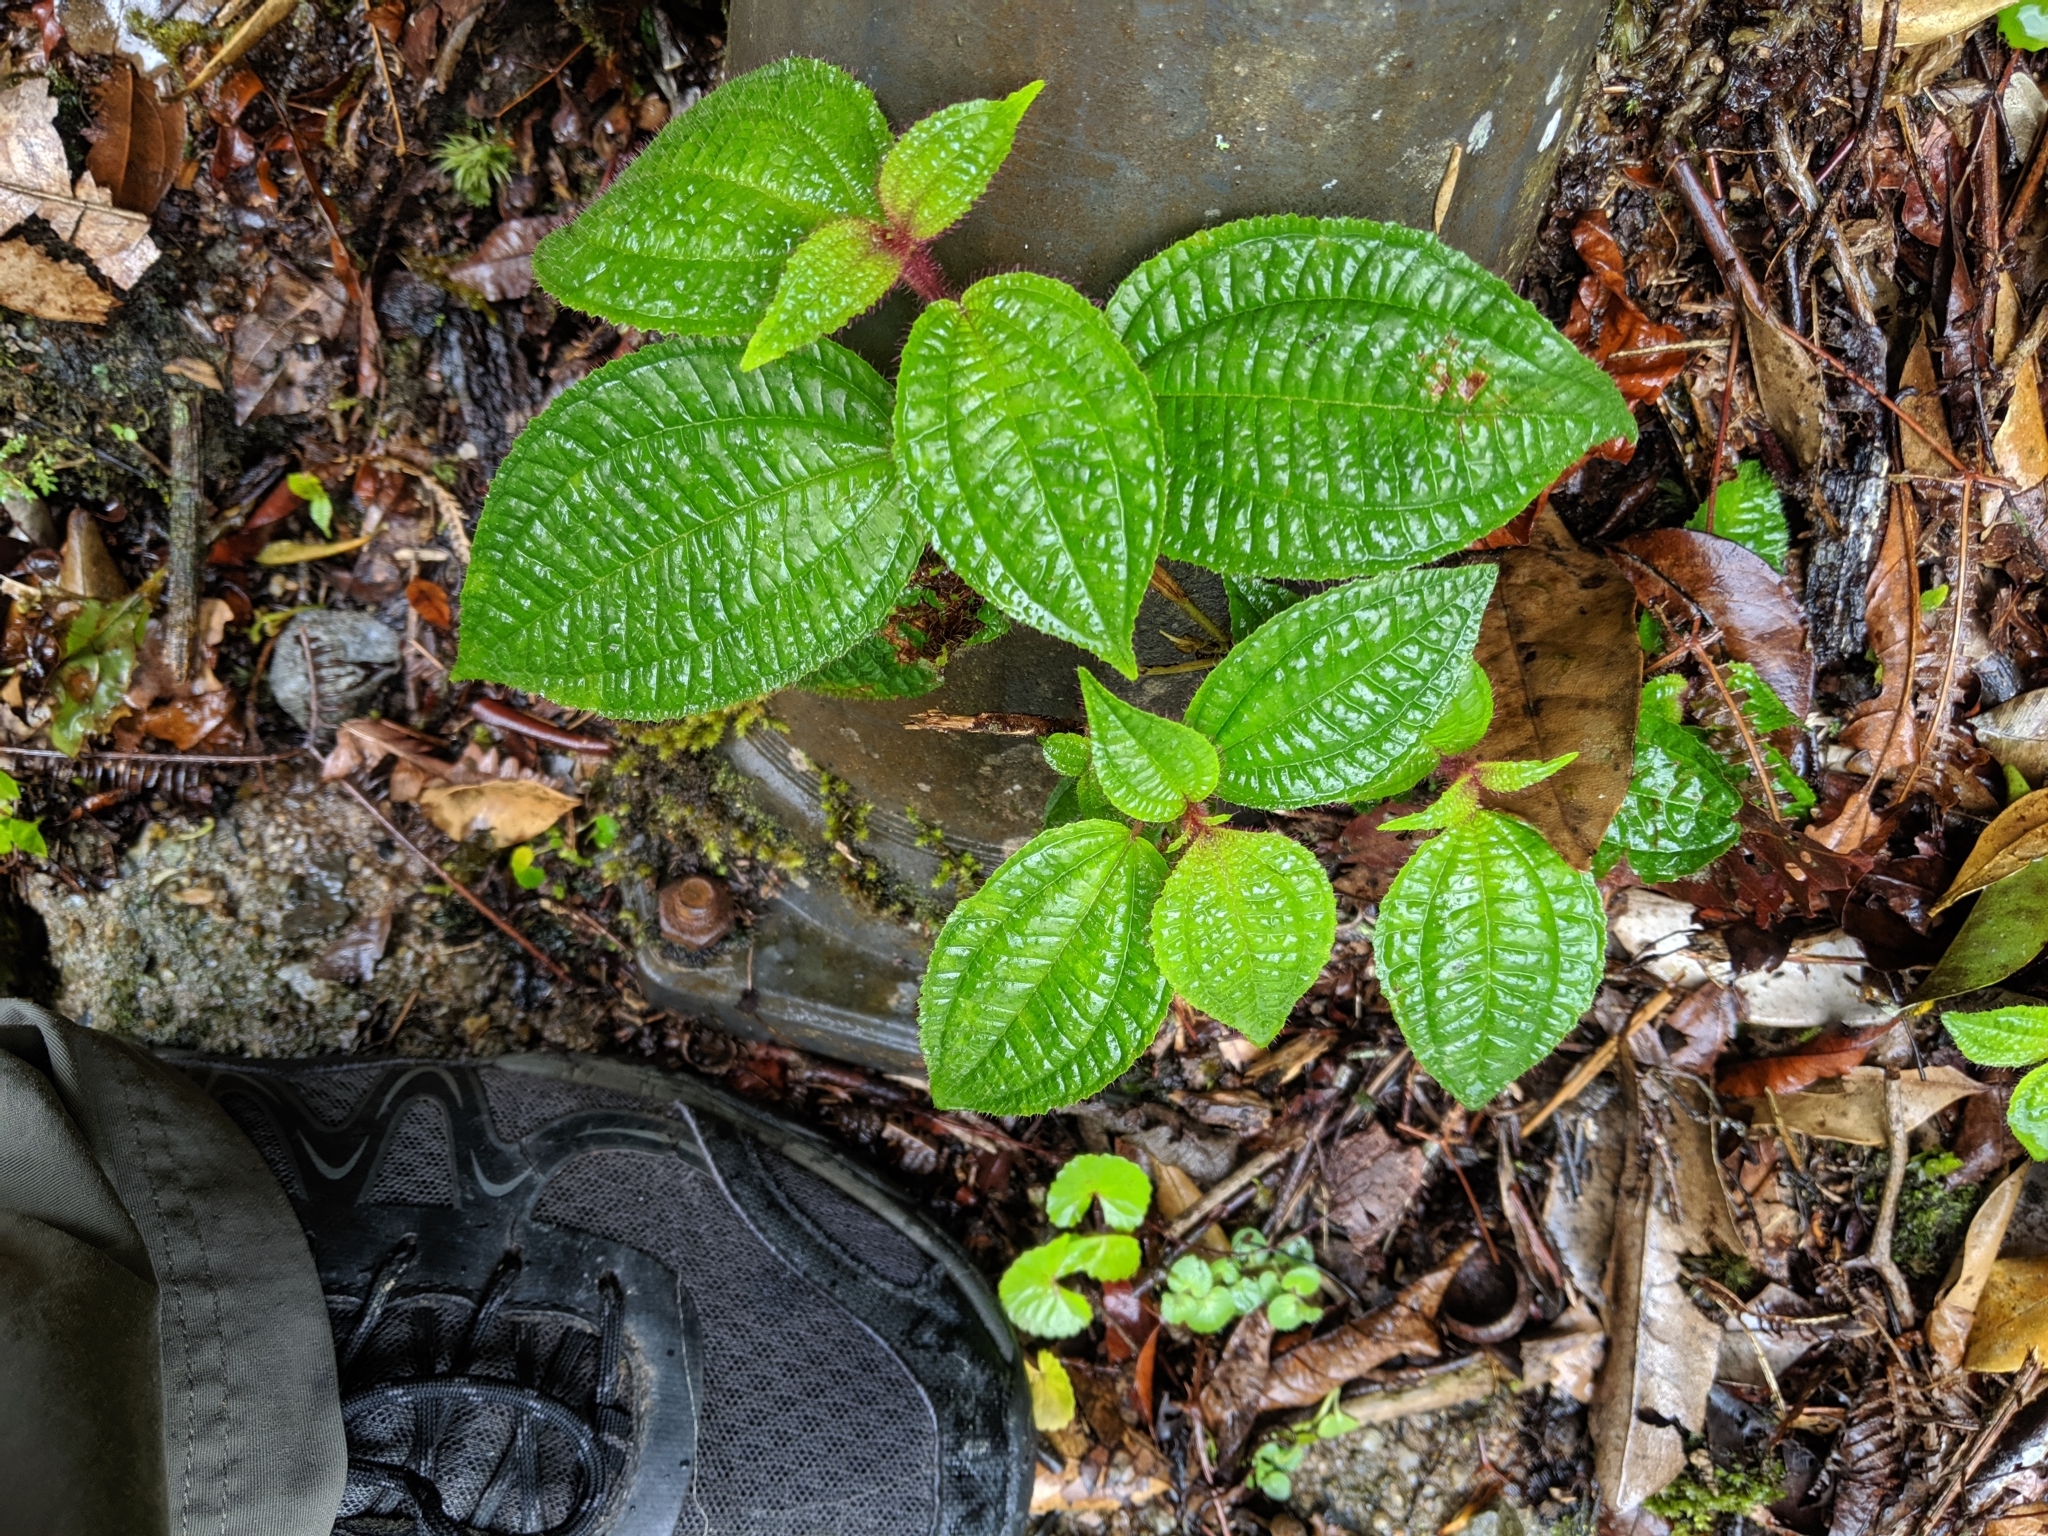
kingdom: Plantae
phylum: Tracheophyta
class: Magnoliopsida
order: Myrtales
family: Melastomataceae
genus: Miconia
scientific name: Miconia crenata
